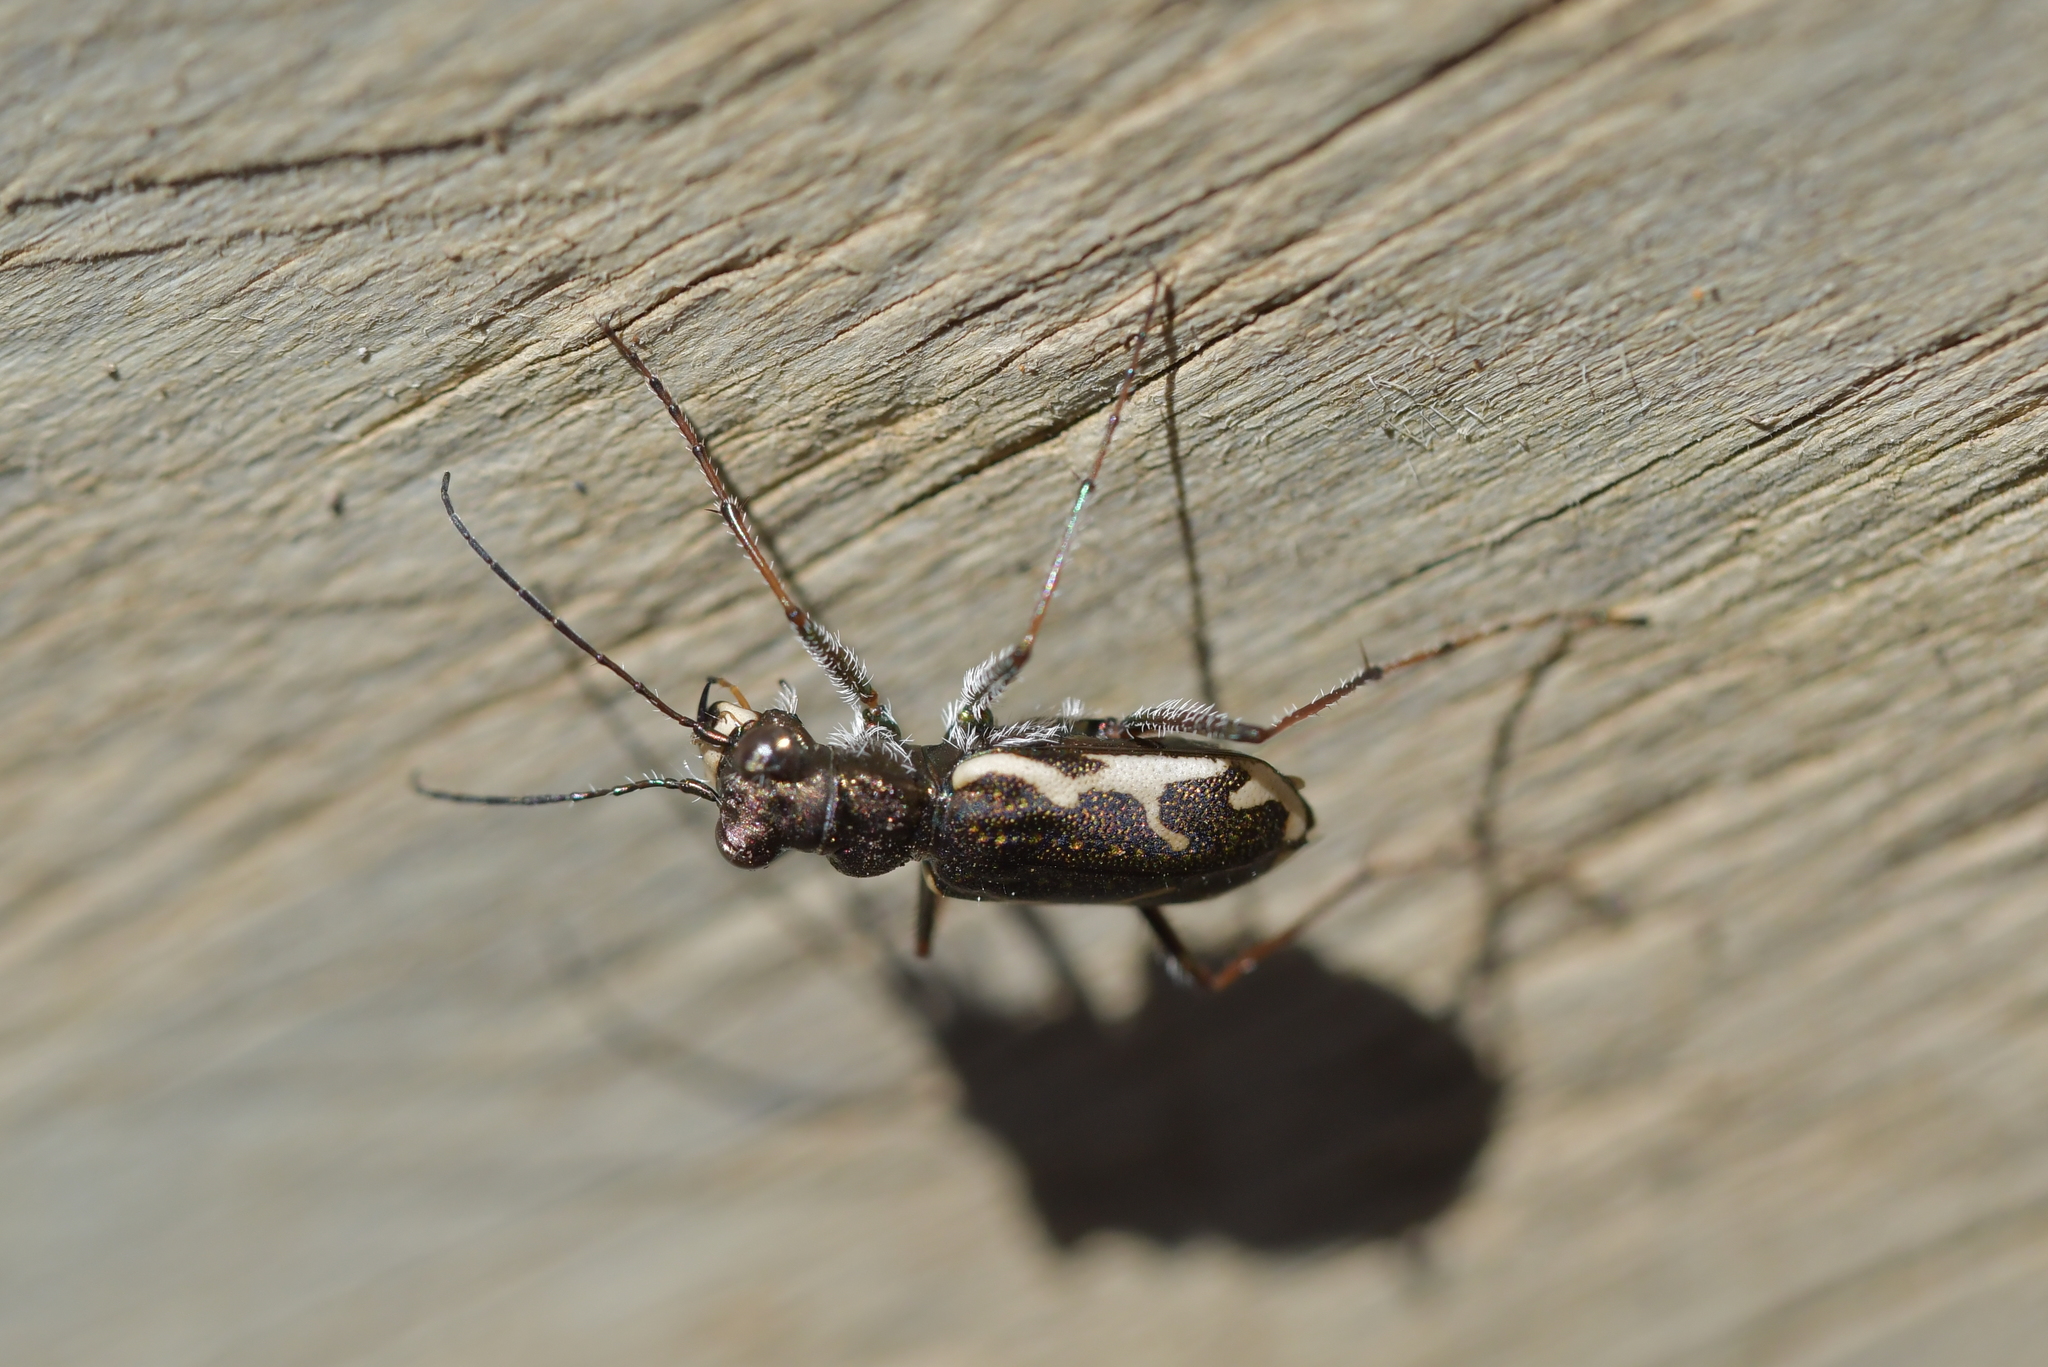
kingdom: Animalia
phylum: Arthropoda
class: Insecta
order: Coleoptera
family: Carabidae
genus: Neocicindela
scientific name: Neocicindela tuberculata
